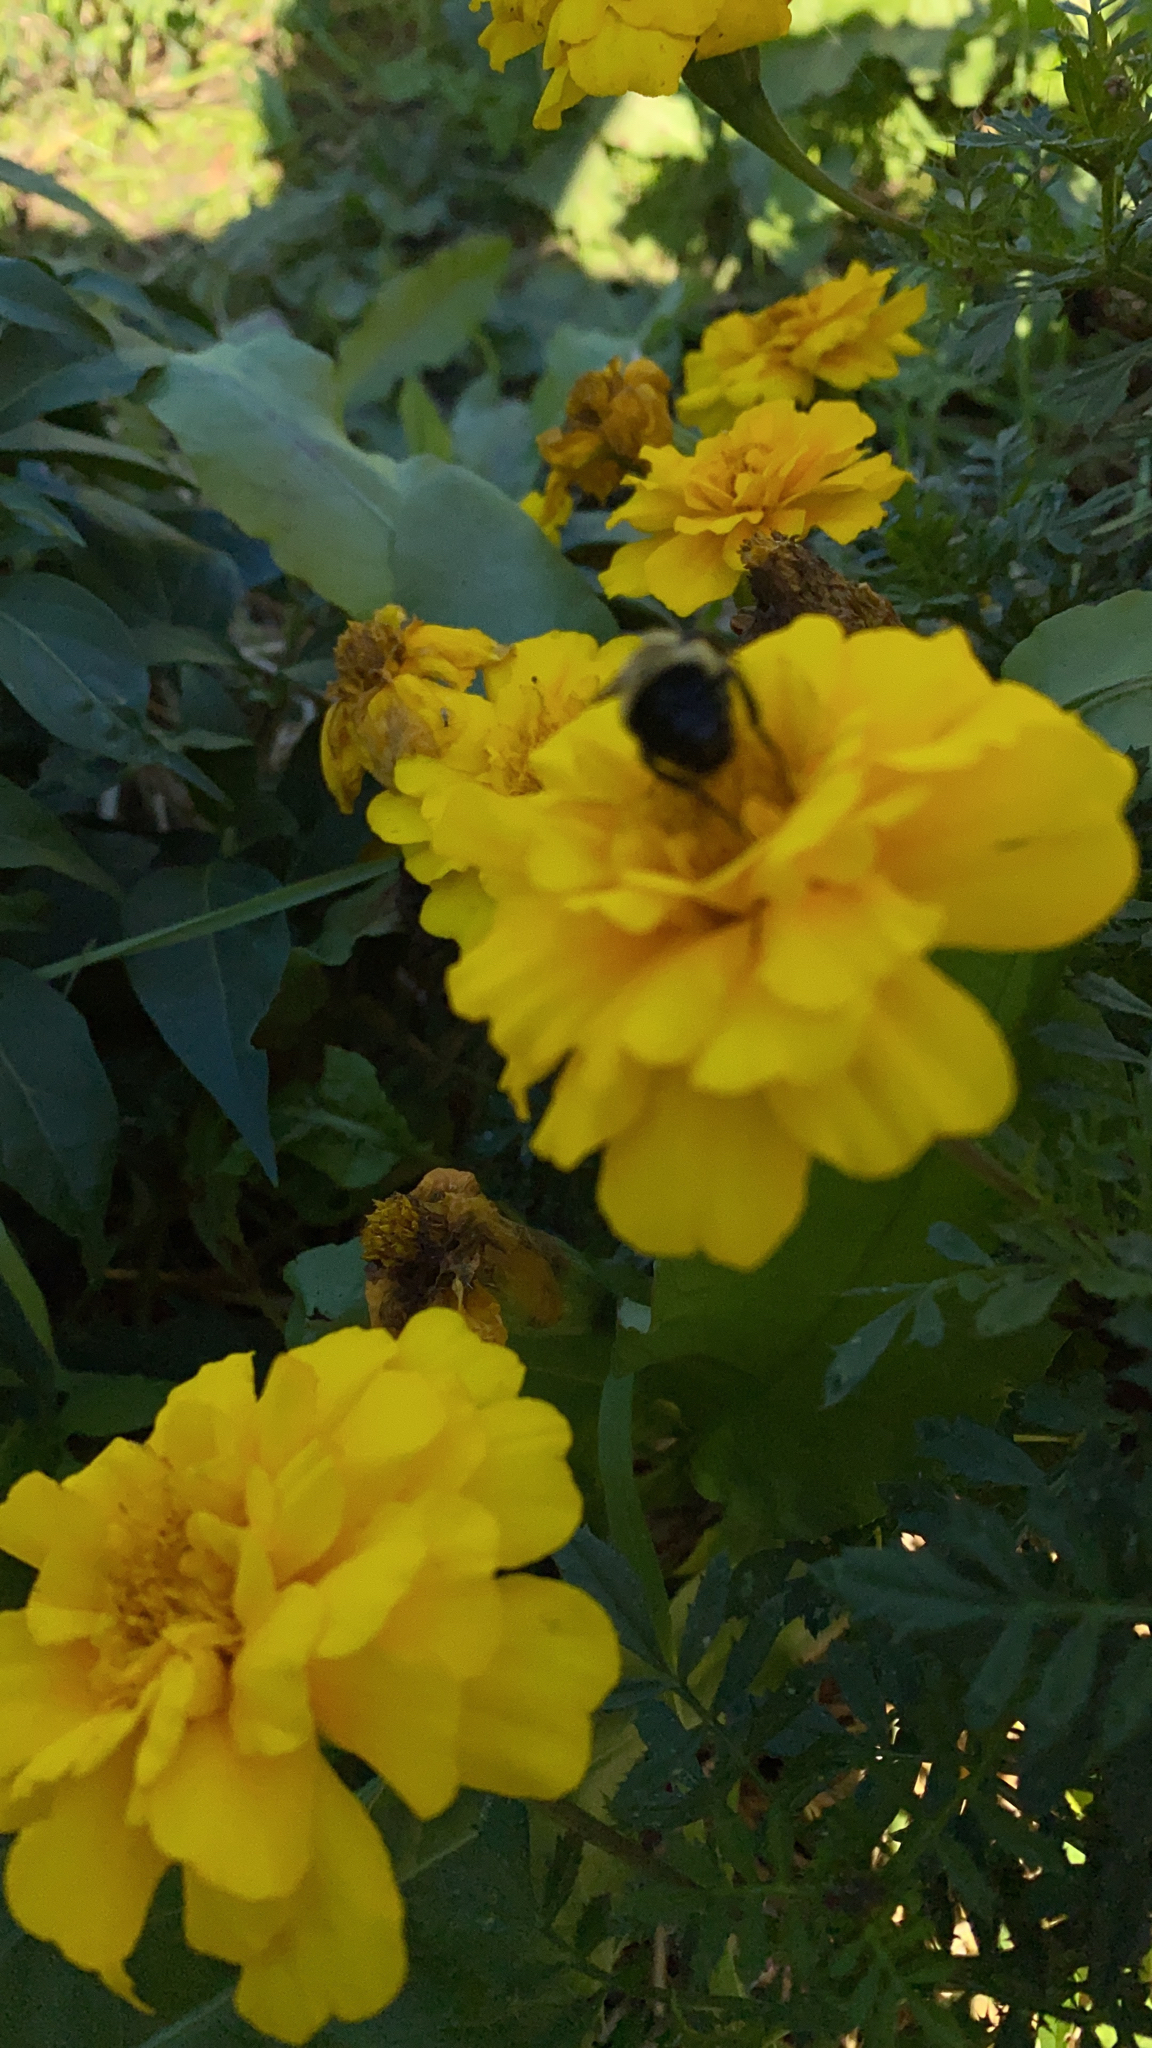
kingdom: Animalia
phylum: Arthropoda
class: Insecta
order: Hymenoptera
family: Apidae
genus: Bombus
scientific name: Bombus impatiens
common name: Common eastern bumble bee
